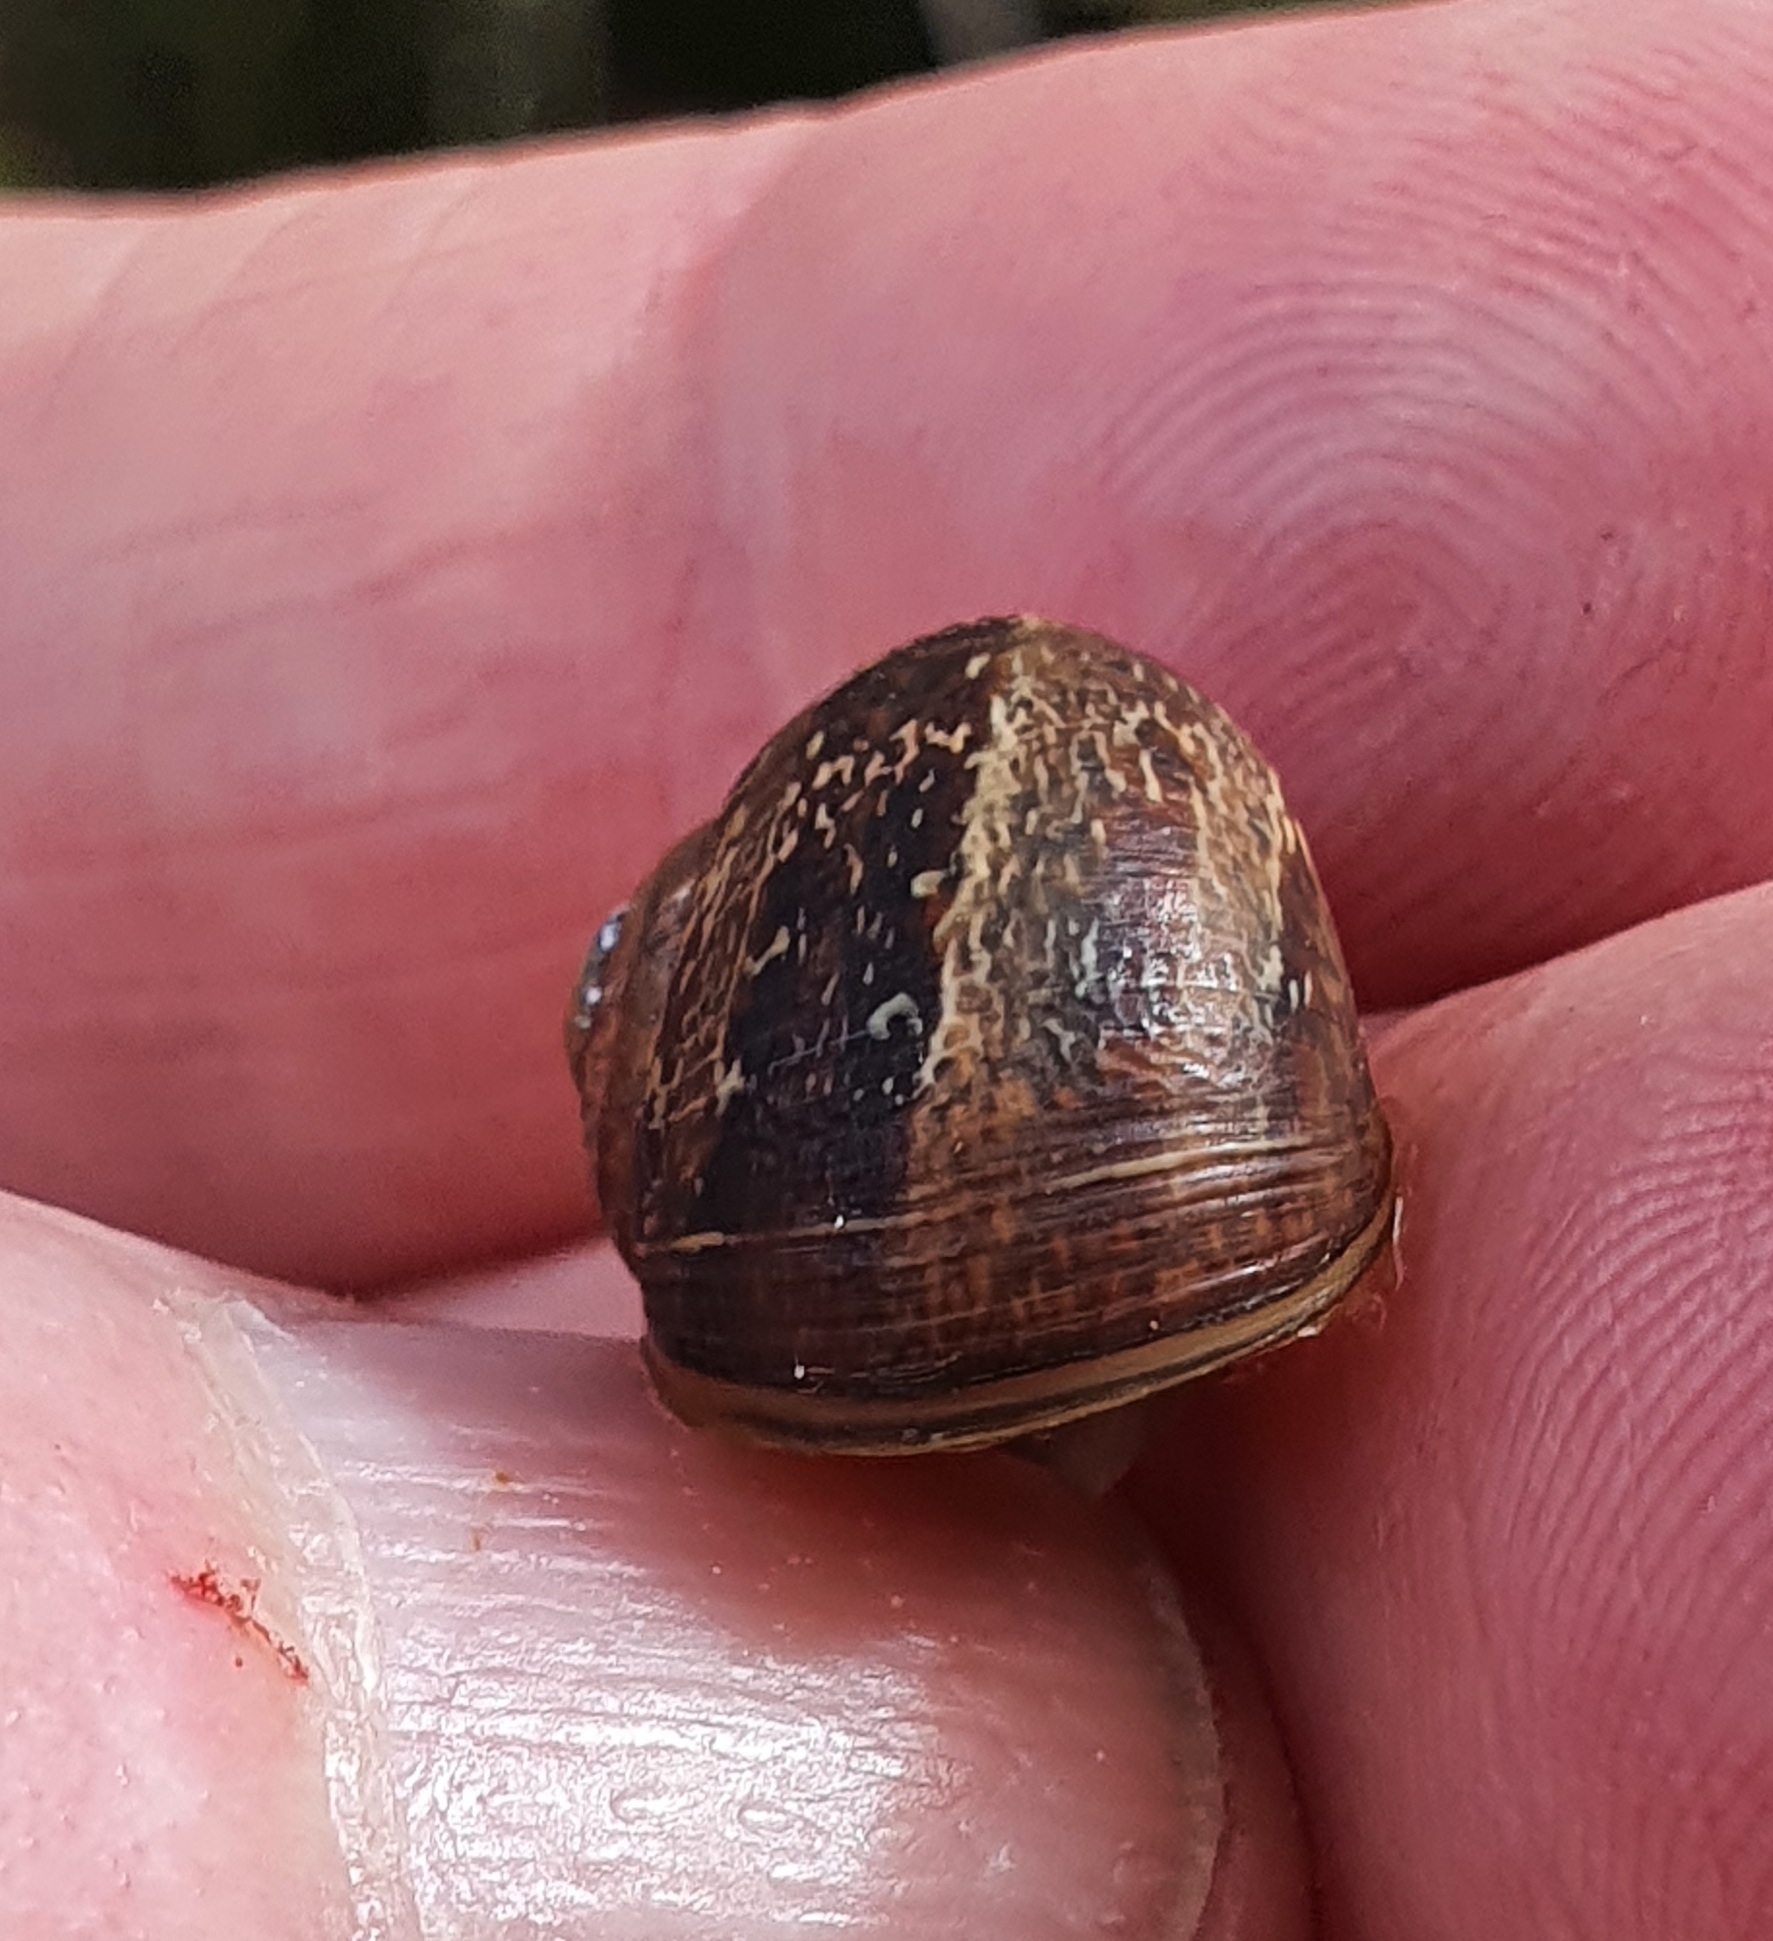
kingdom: Animalia
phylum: Mollusca
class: Gastropoda
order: Stylommatophora
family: Helicidae
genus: Cornu
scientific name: Cornu aspersum
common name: Brown garden snail
